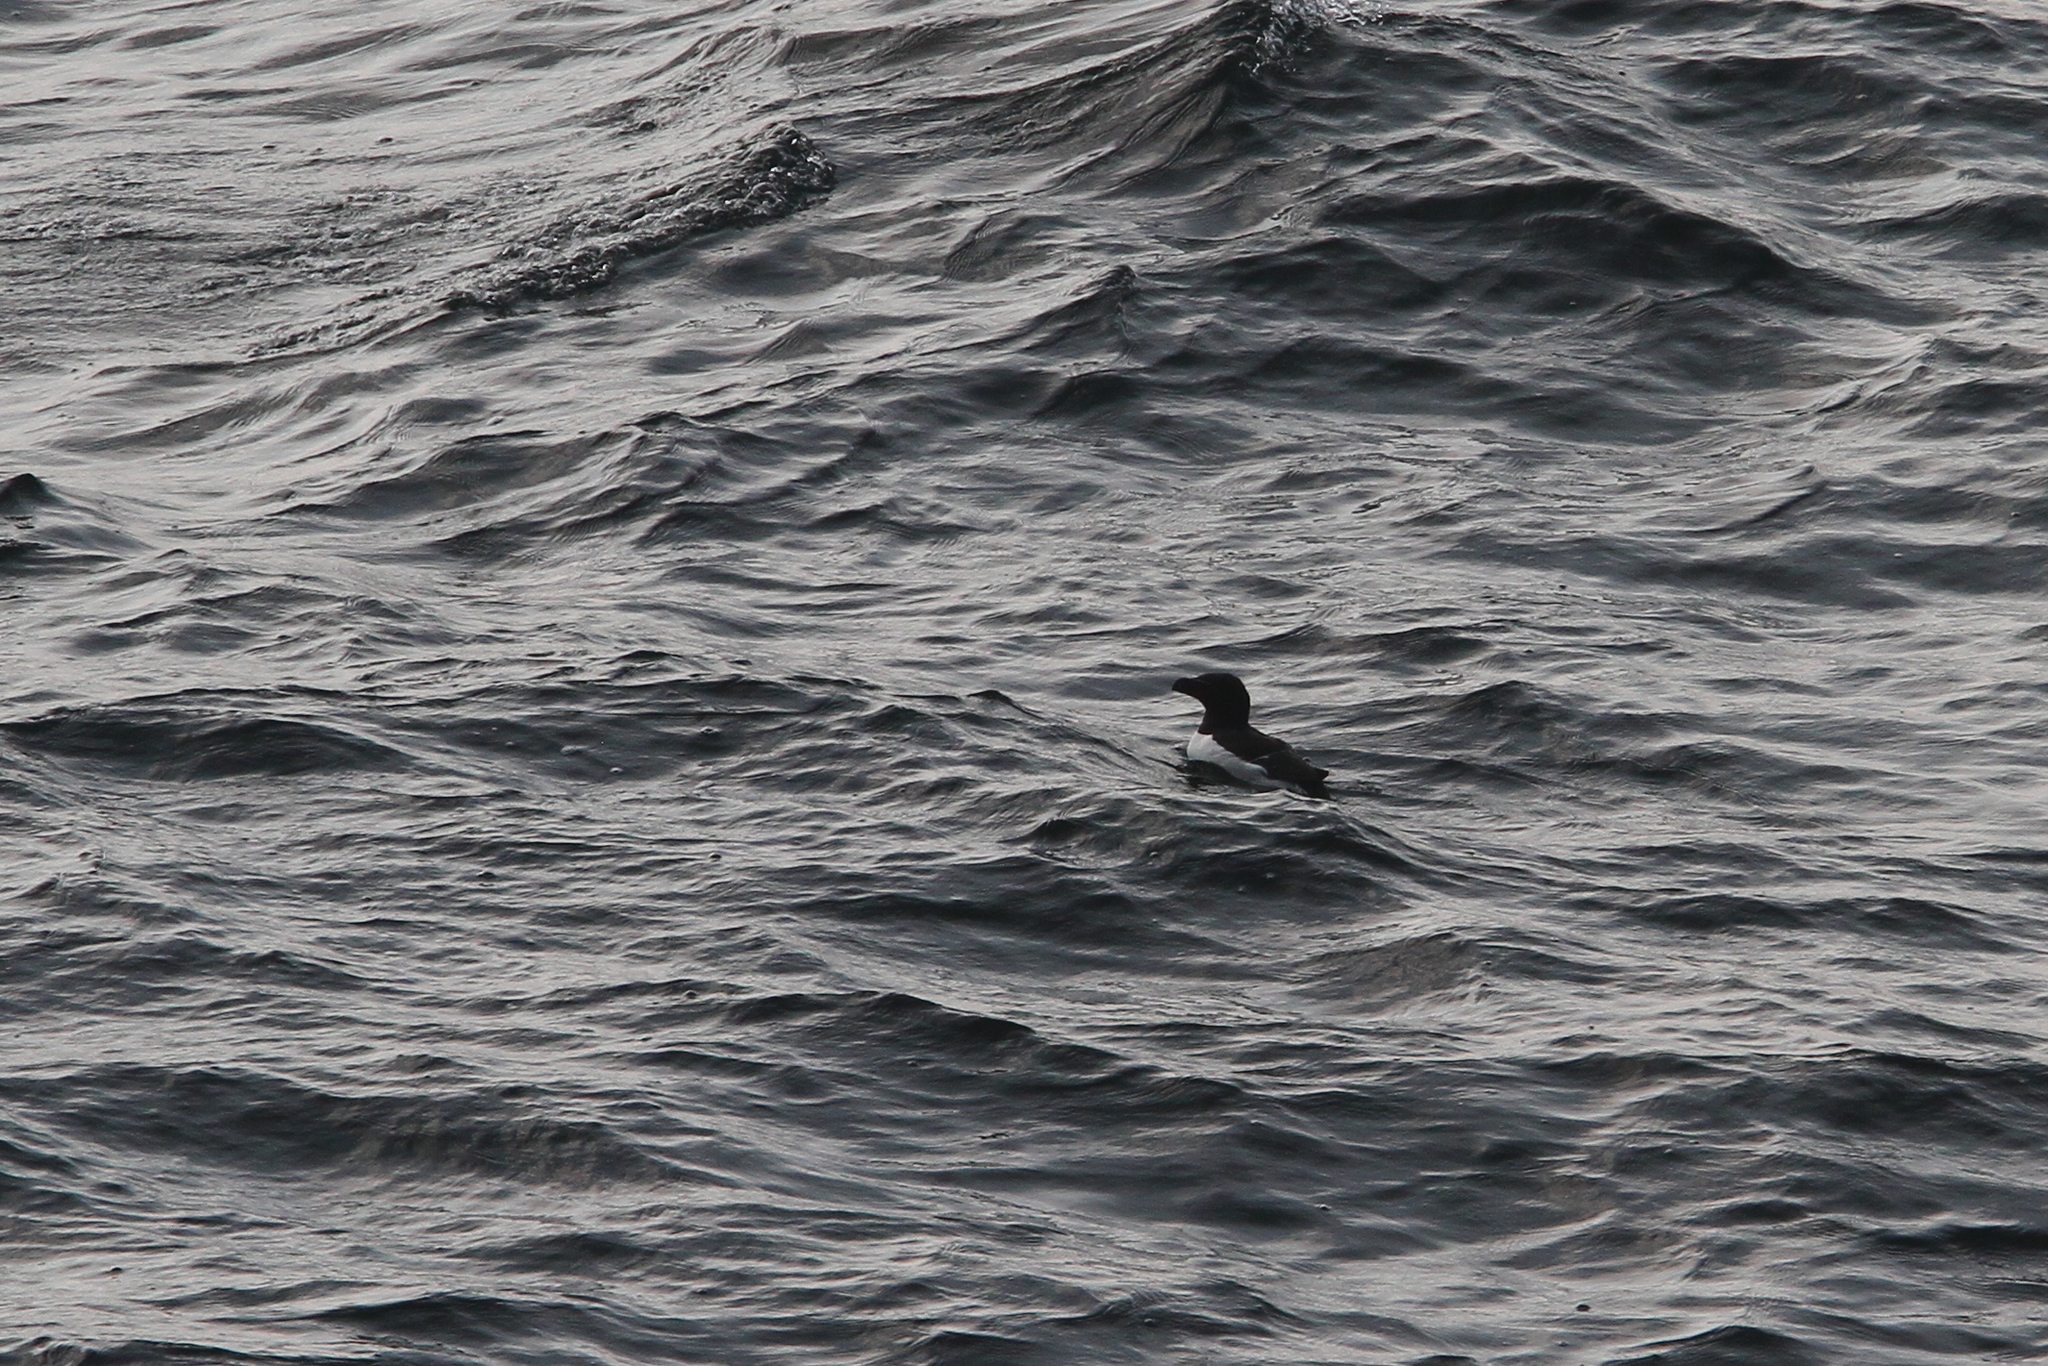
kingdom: Animalia
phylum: Chordata
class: Aves
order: Charadriiformes
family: Alcidae
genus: Alca
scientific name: Alca torda
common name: Razorbill
